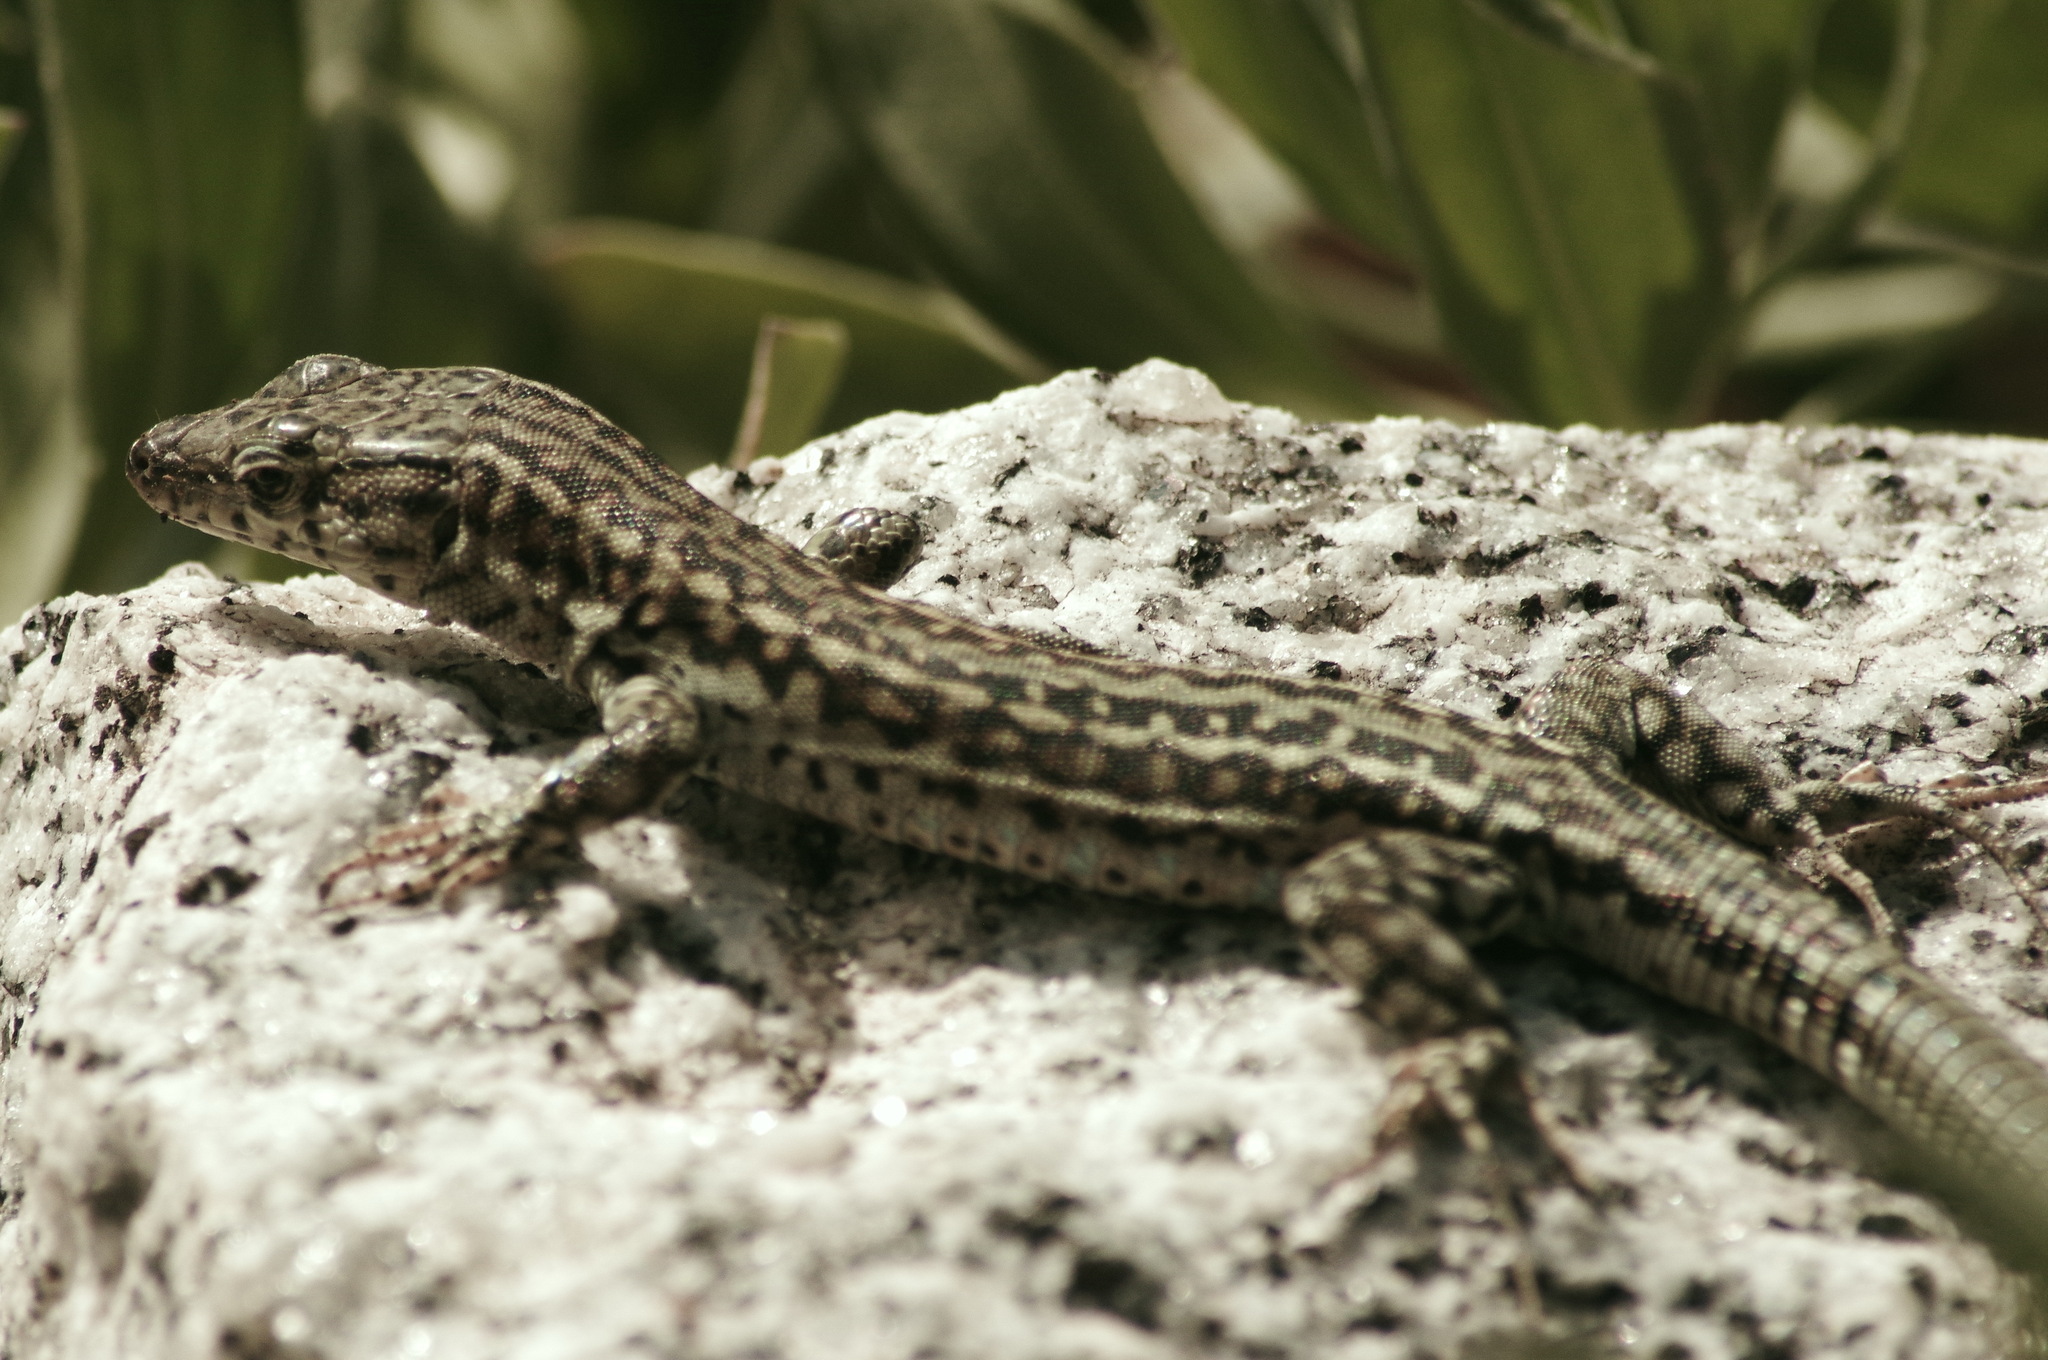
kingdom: Animalia
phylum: Chordata
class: Squamata
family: Lacertidae
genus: Podarcis
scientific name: Podarcis guadarramae
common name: Guadarrama wall lizard
